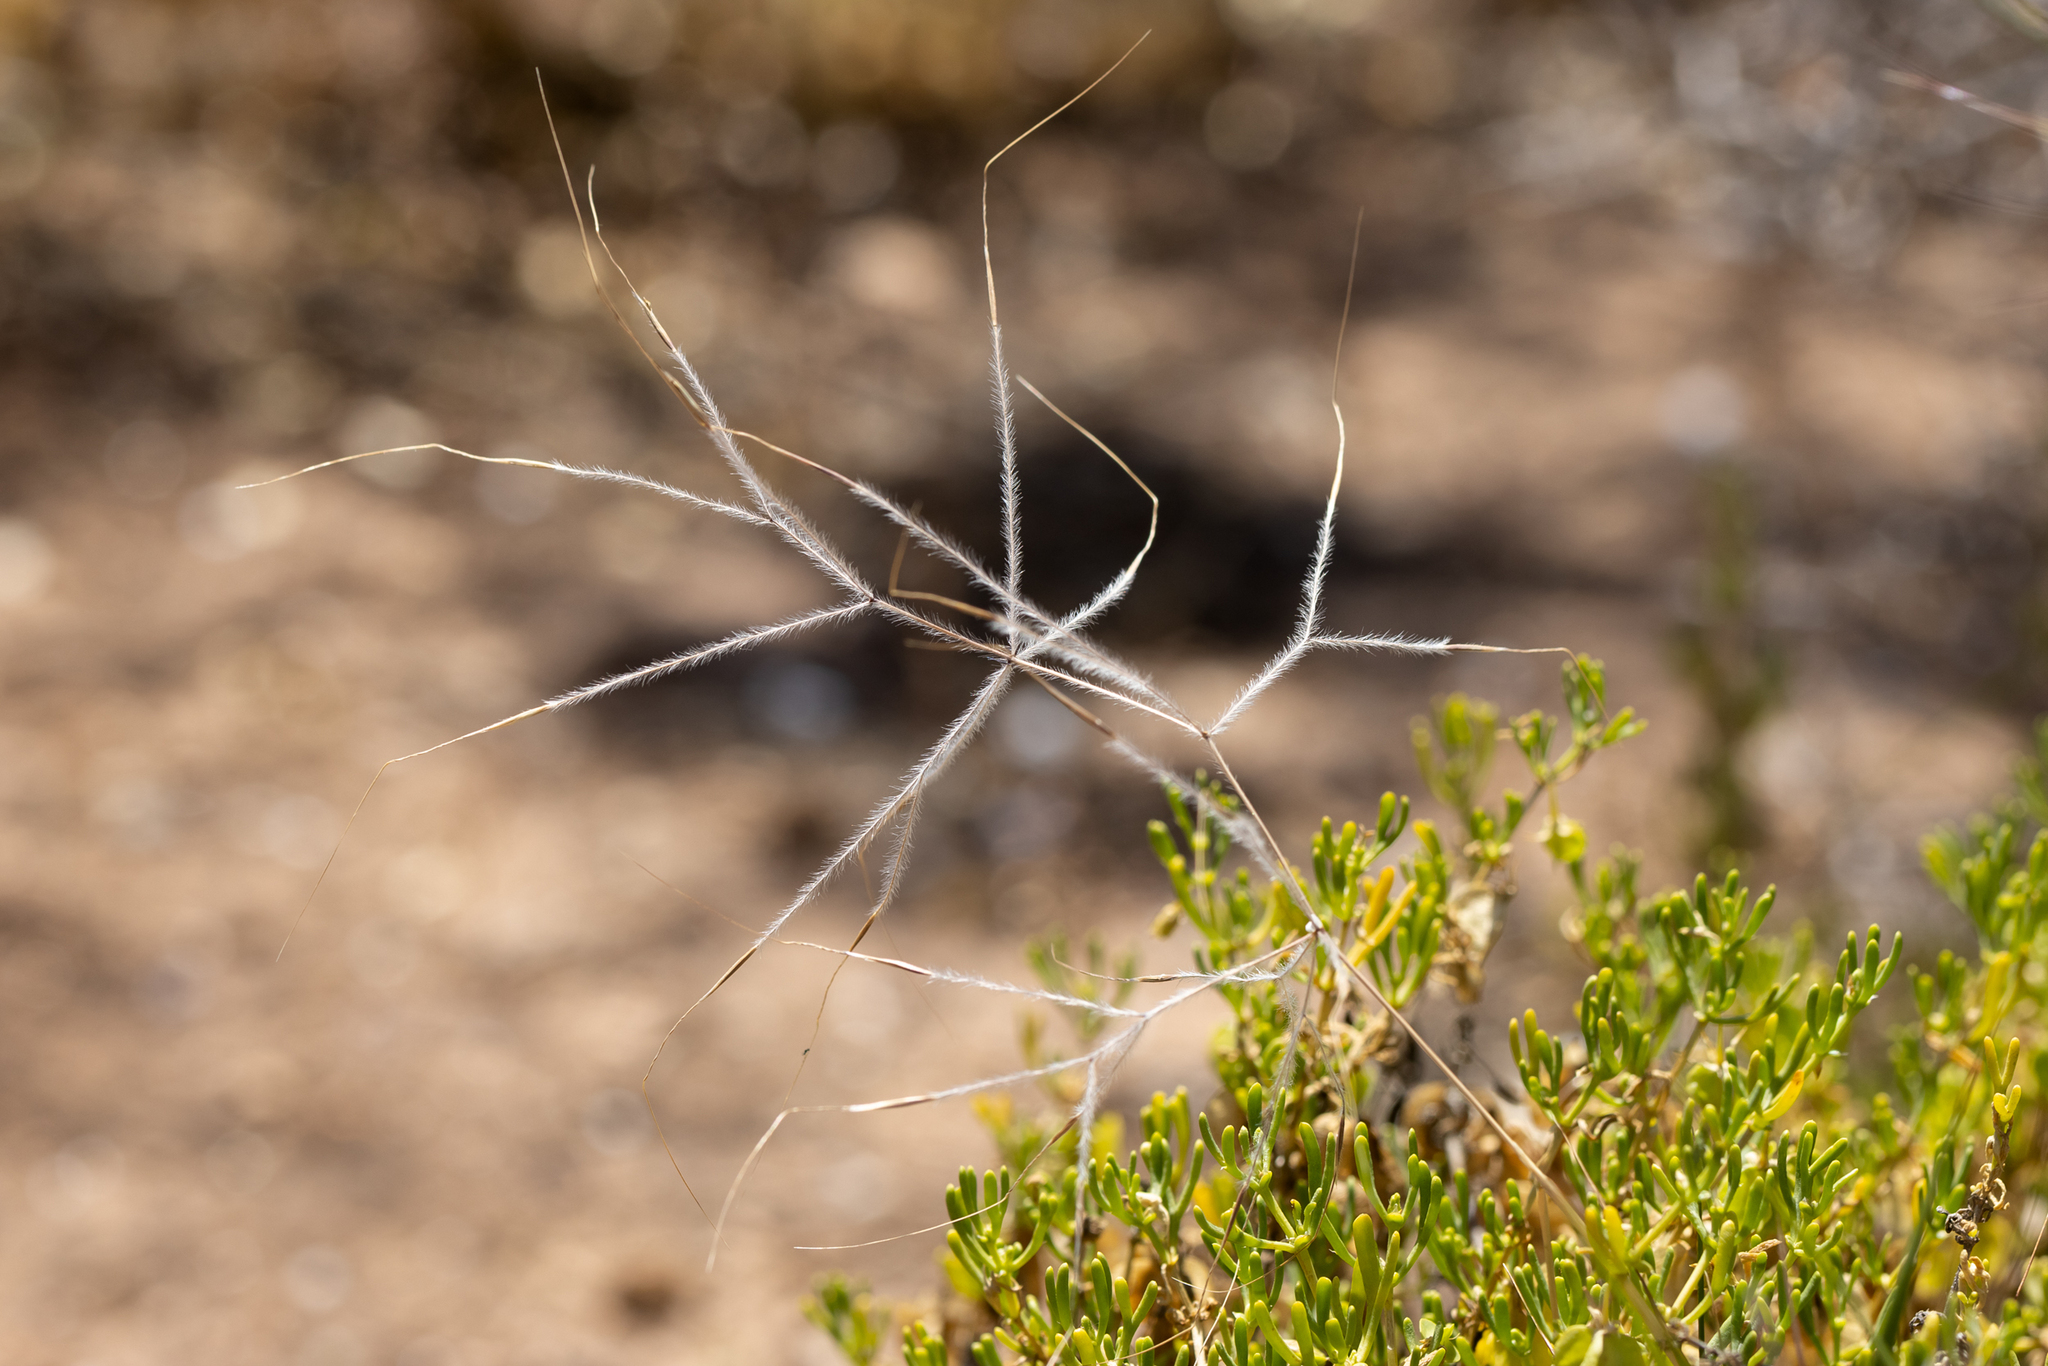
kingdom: Plantae
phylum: Tracheophyta
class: Liliopsida
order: Poales
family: Poaceae
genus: Austrostipa
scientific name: Austrostipa elegantissima
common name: Feather spear grass
